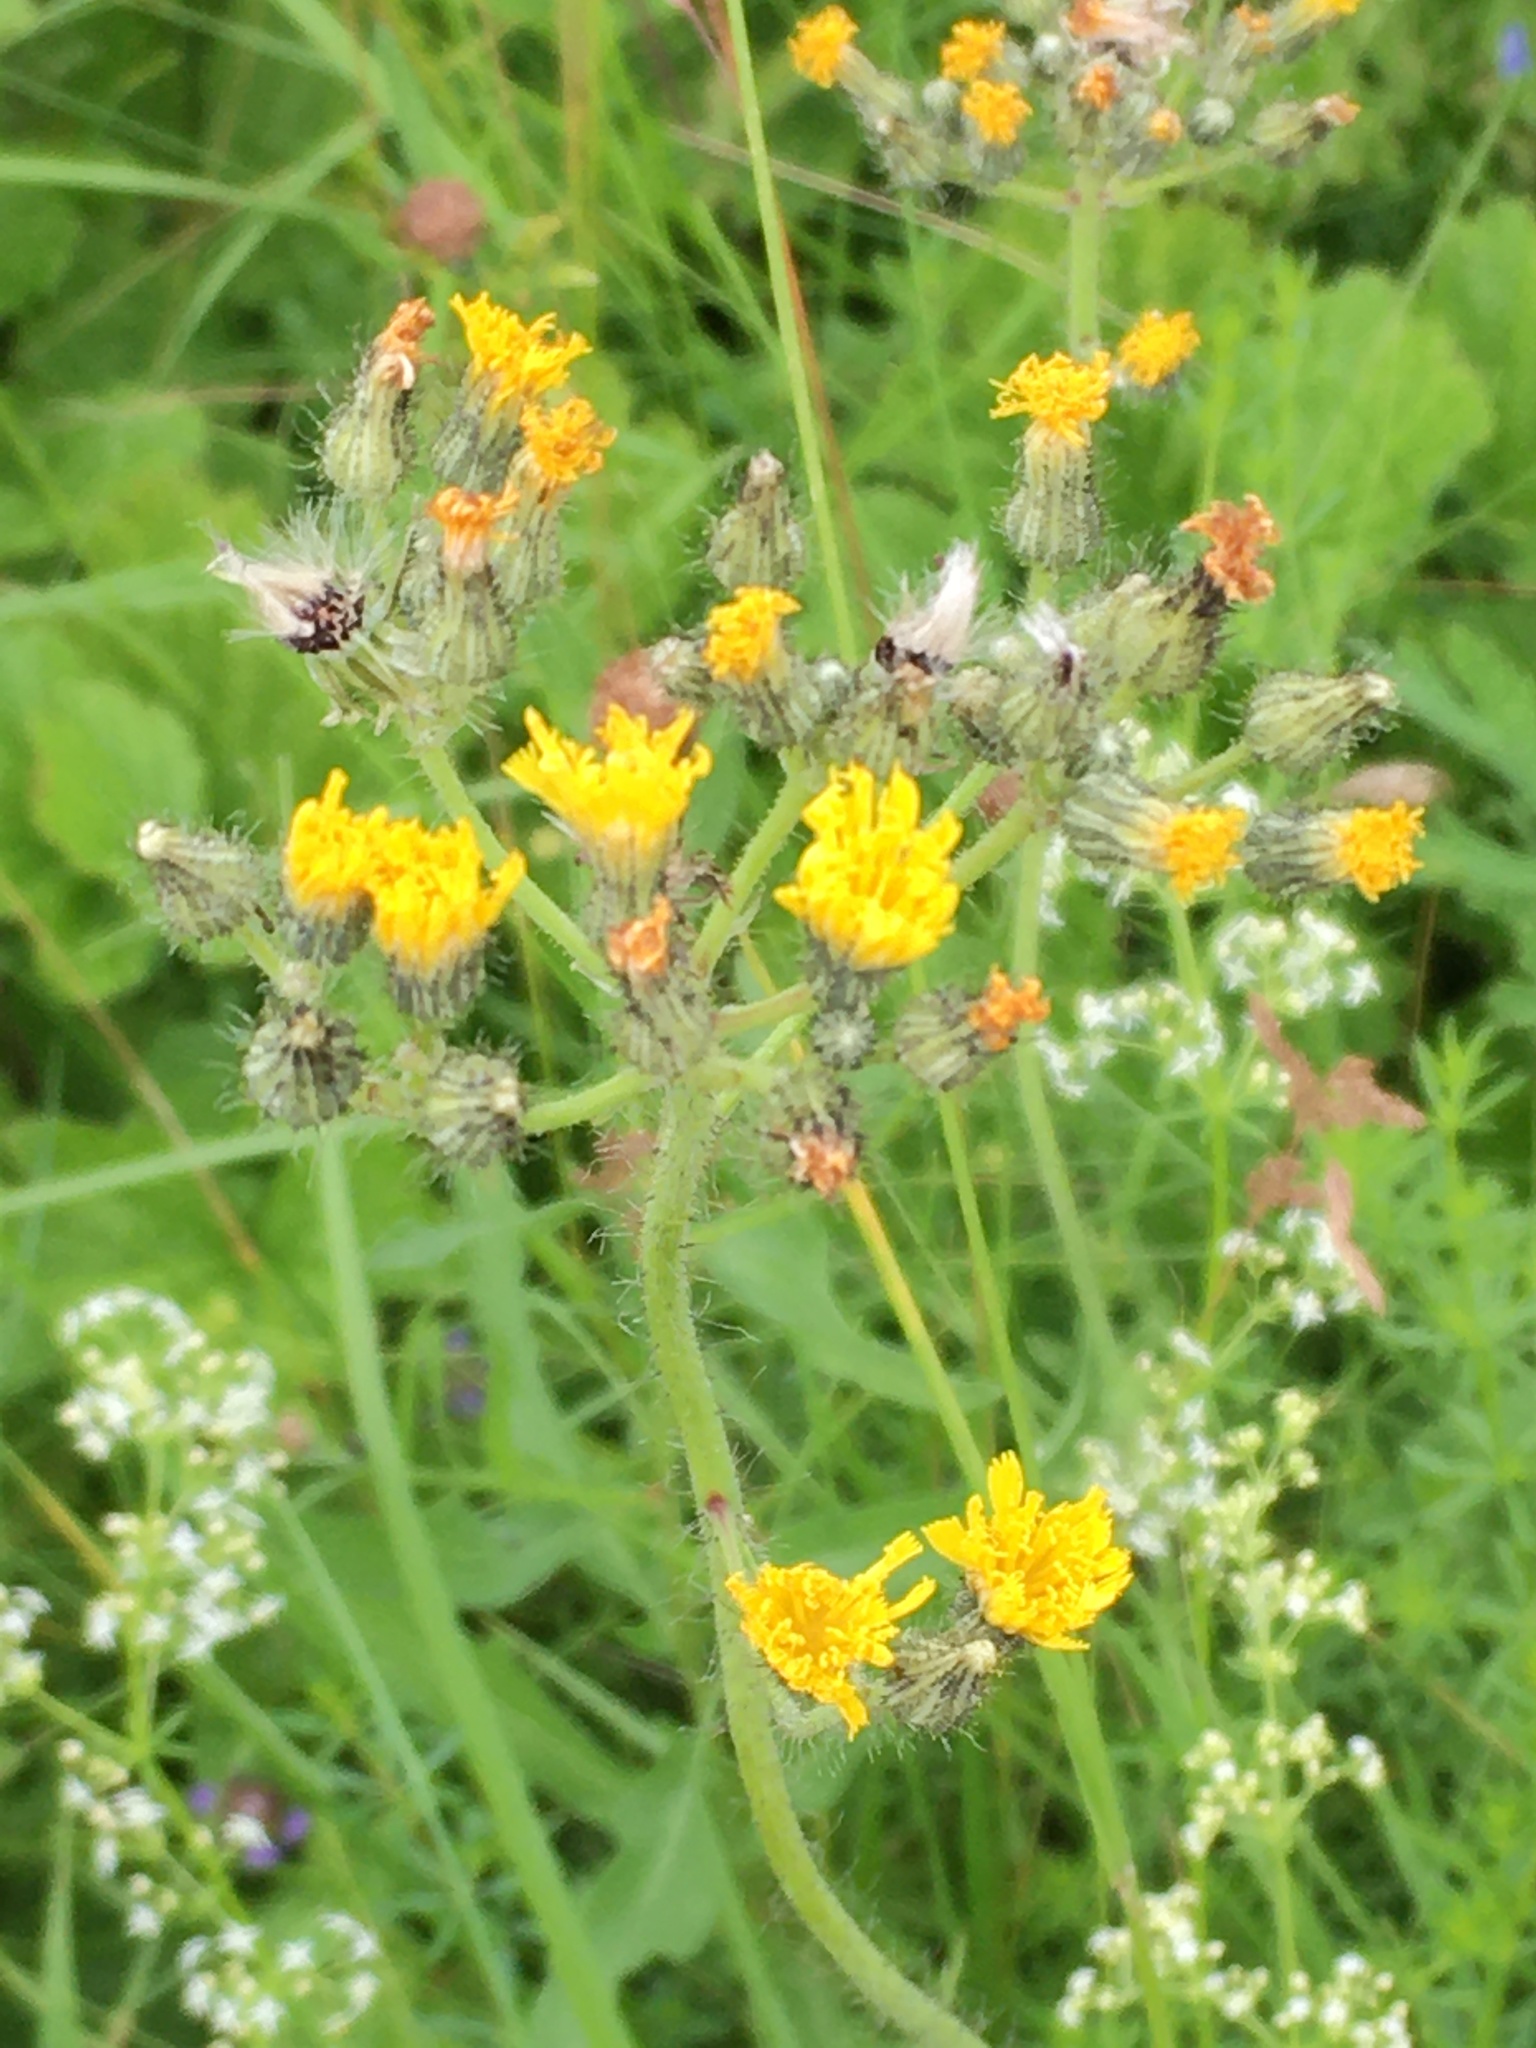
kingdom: Plantae
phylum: Tracheophyta
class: Magnoliopsida
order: Asterales
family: Asteraceae
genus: Pilosella
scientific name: Pilosella
